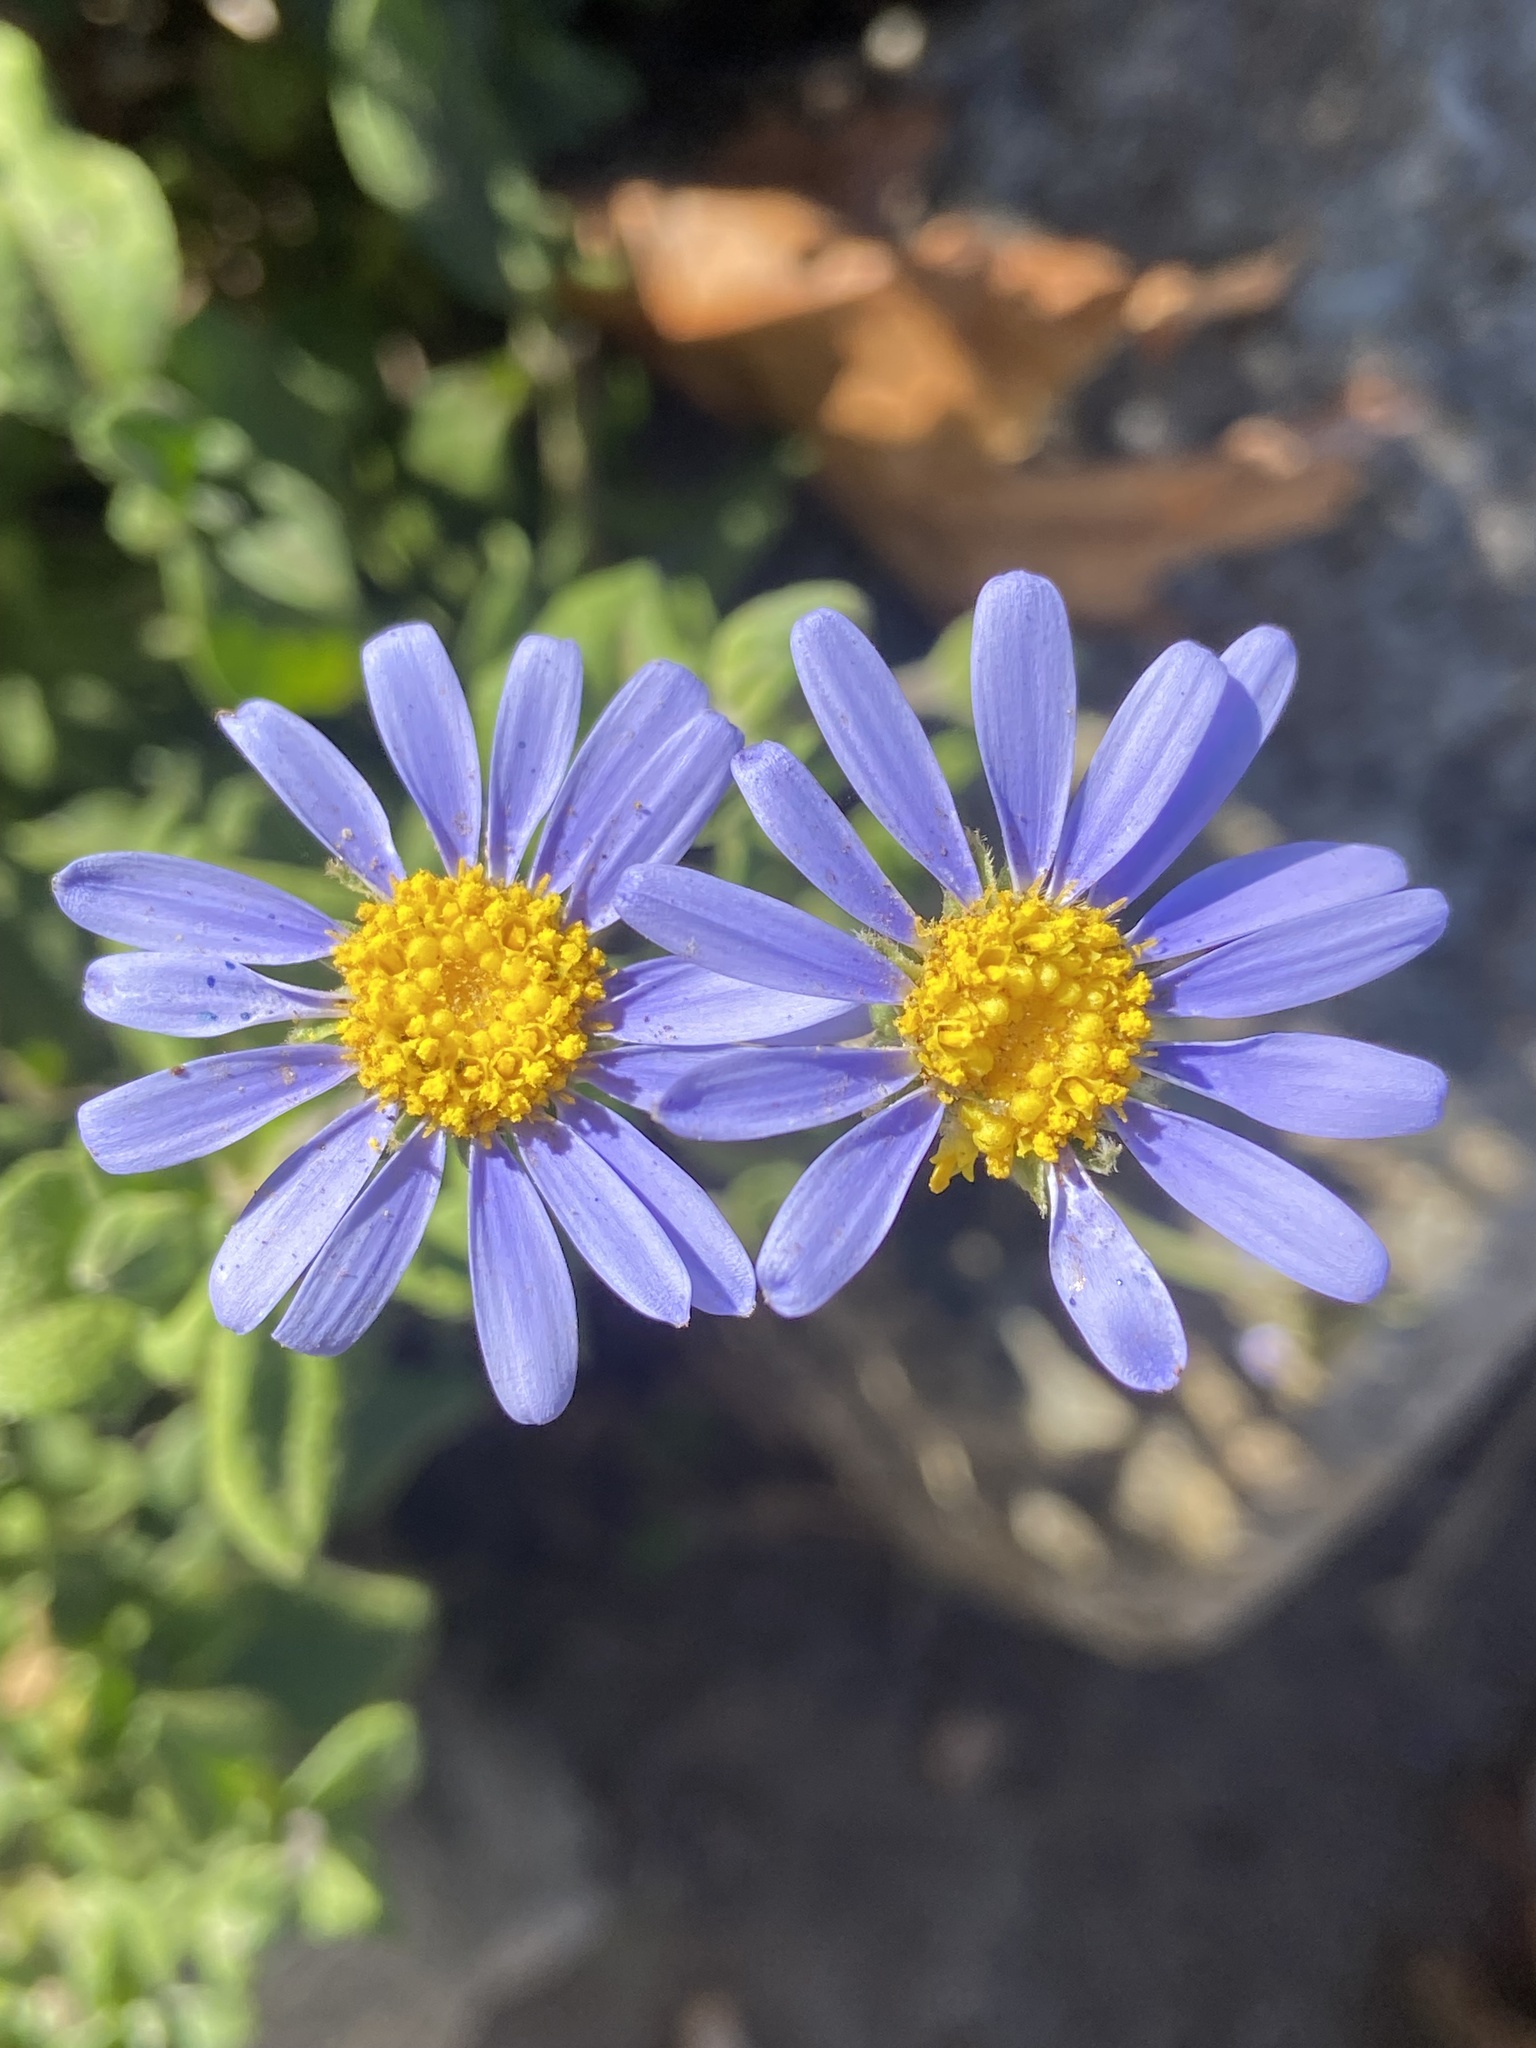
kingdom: Plantae
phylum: Tracheophyta
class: Magnoliopsida
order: Asterales
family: Asteraceae
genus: Felicia
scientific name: Felicia amelloides
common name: Blue marguerite
